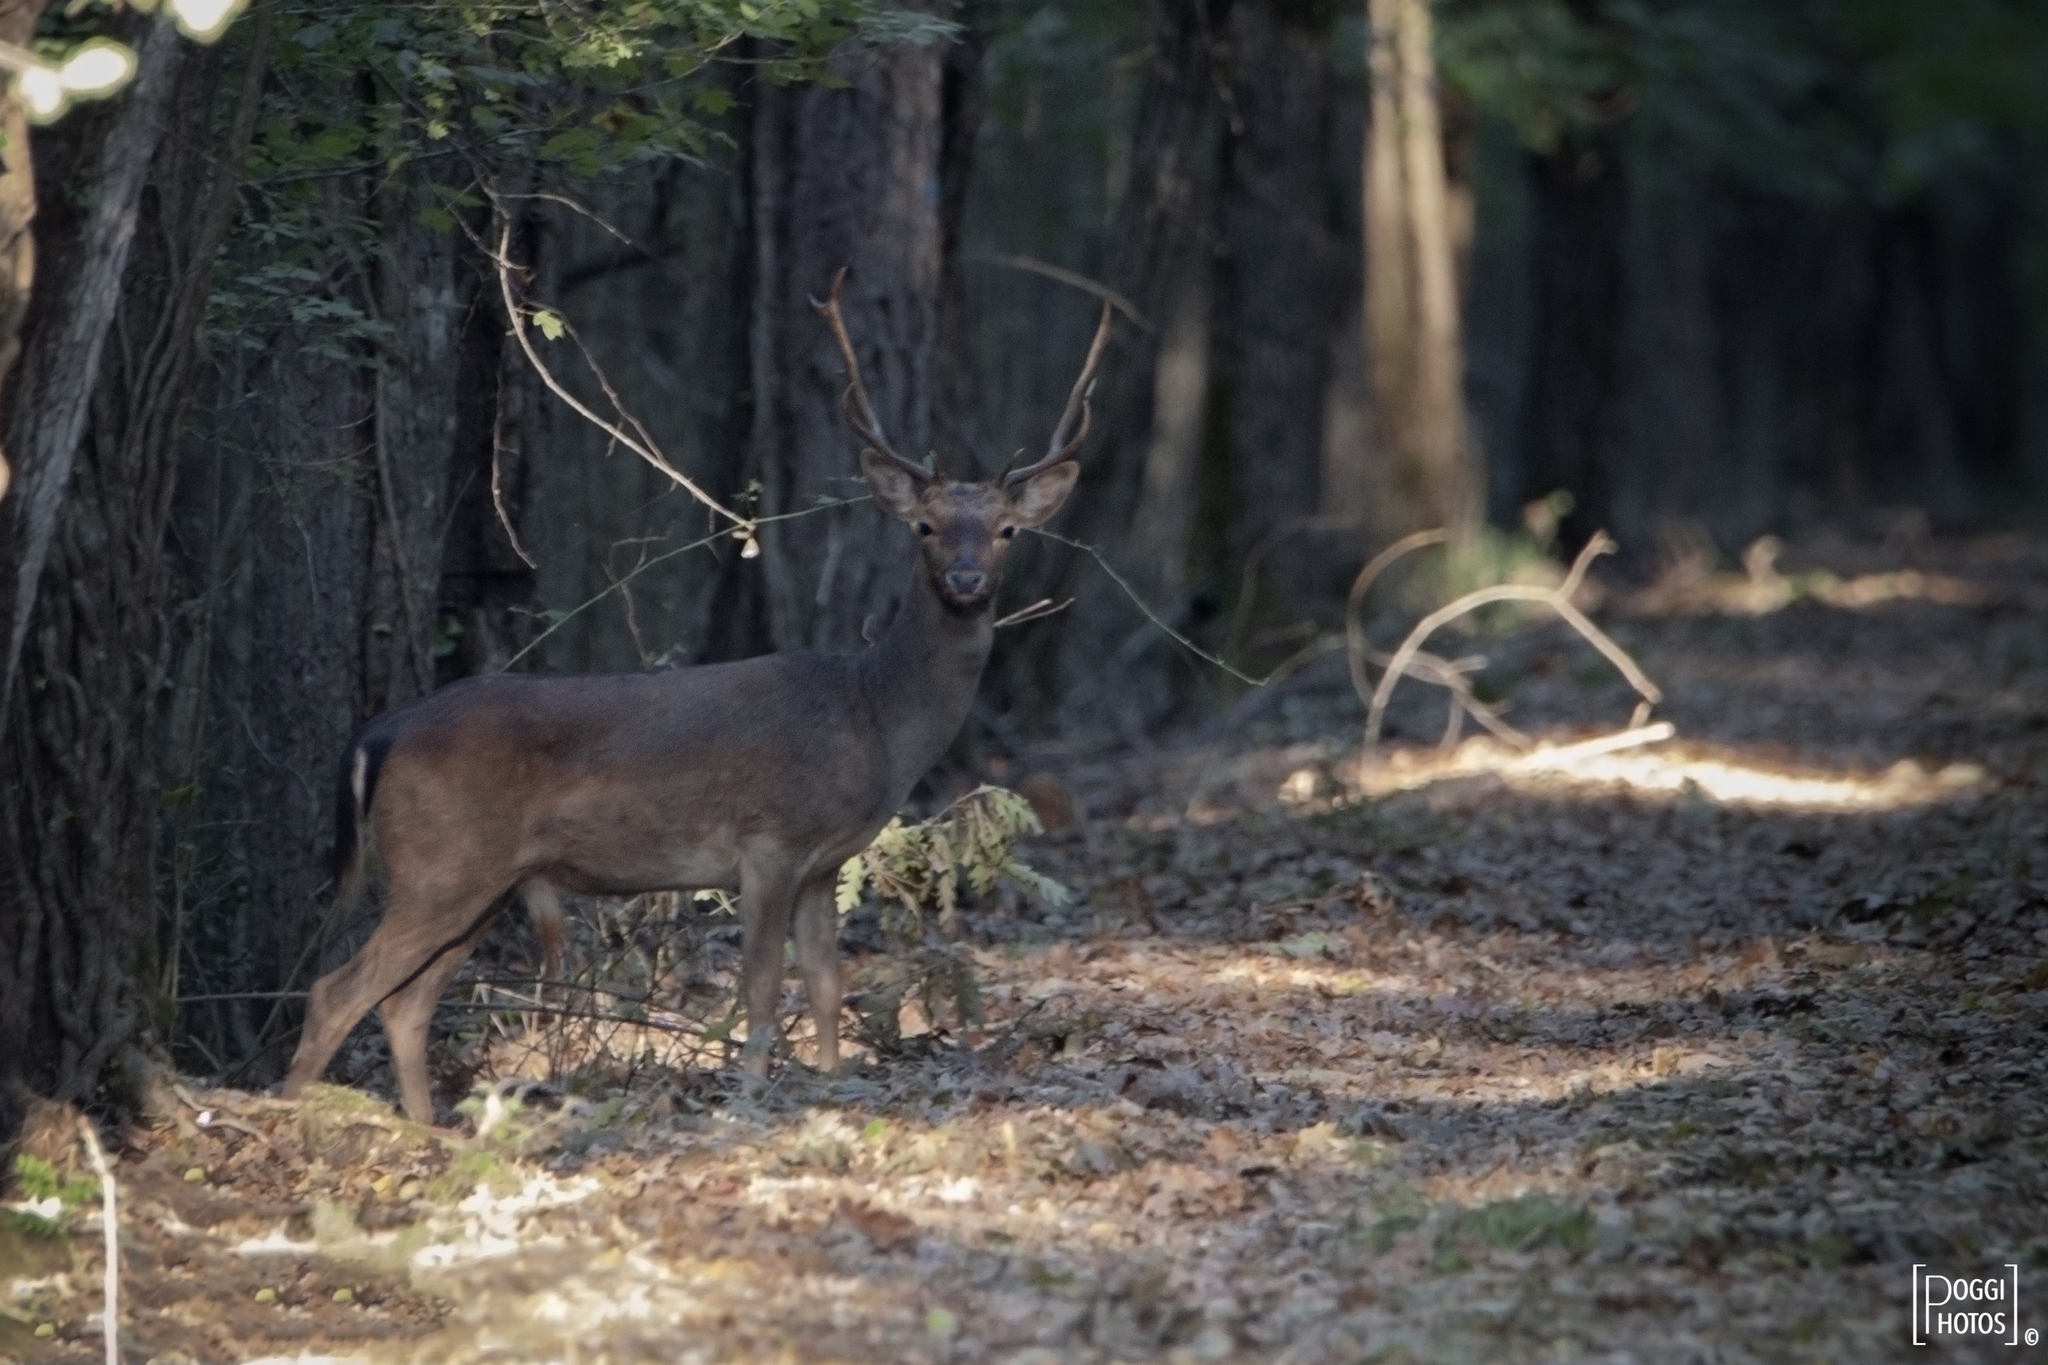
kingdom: Animalia
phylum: Chordata
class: Mammalia
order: Artiodactyla
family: Cervidae
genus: Dama
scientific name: Dama dama
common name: Fallow deer
